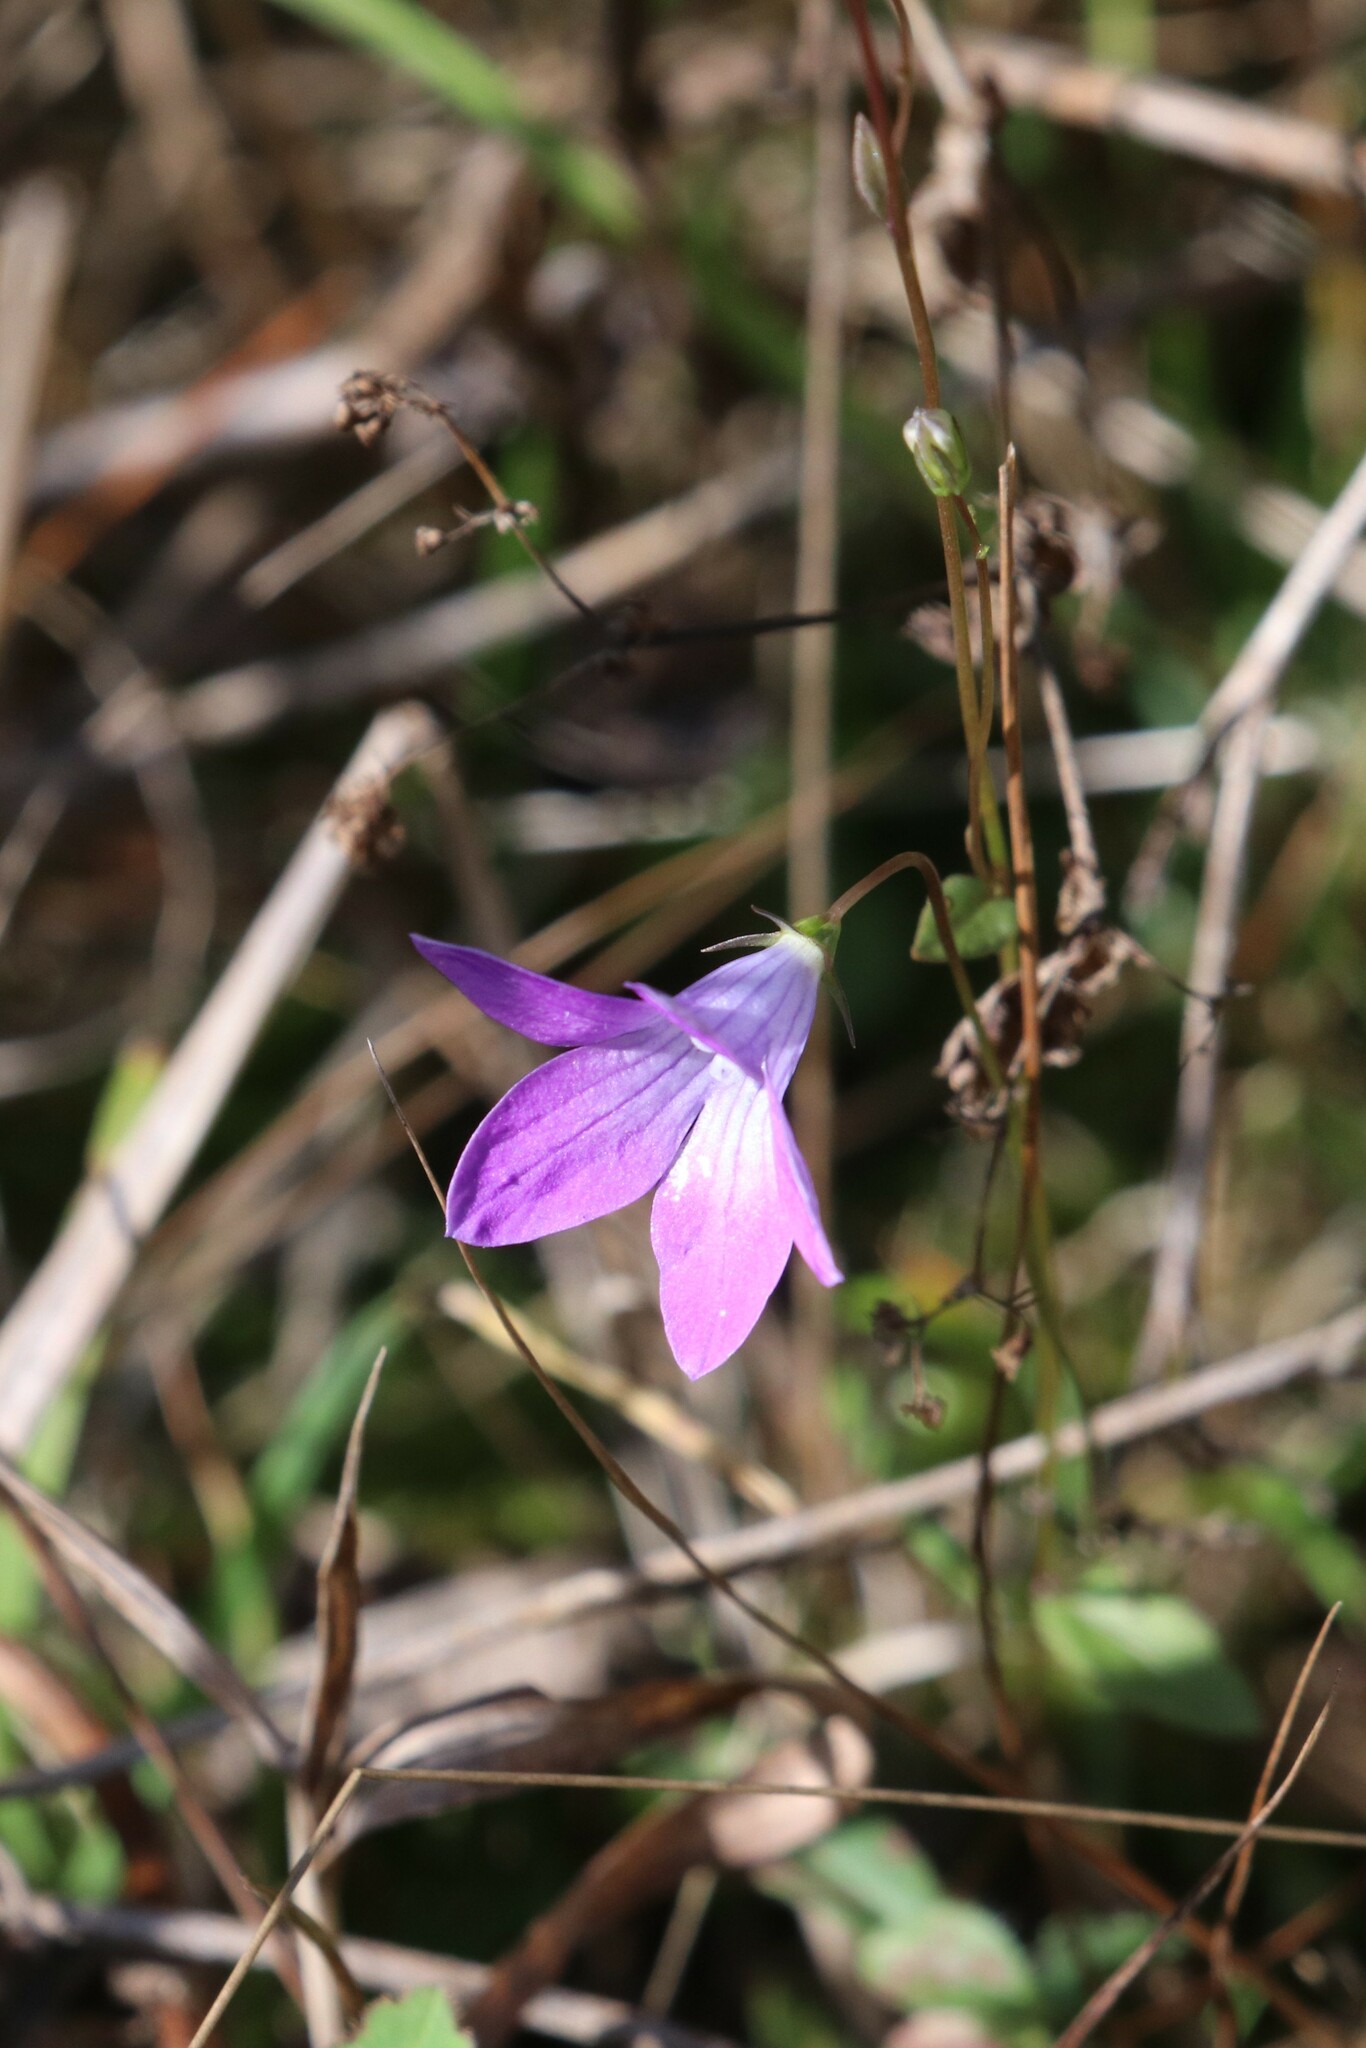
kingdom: Plantae
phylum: Tracheophyta
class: Magnoliopsida
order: Asterales
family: Campanulaceae
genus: Campanula
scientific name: Campanula patula
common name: Spreading bellflower
